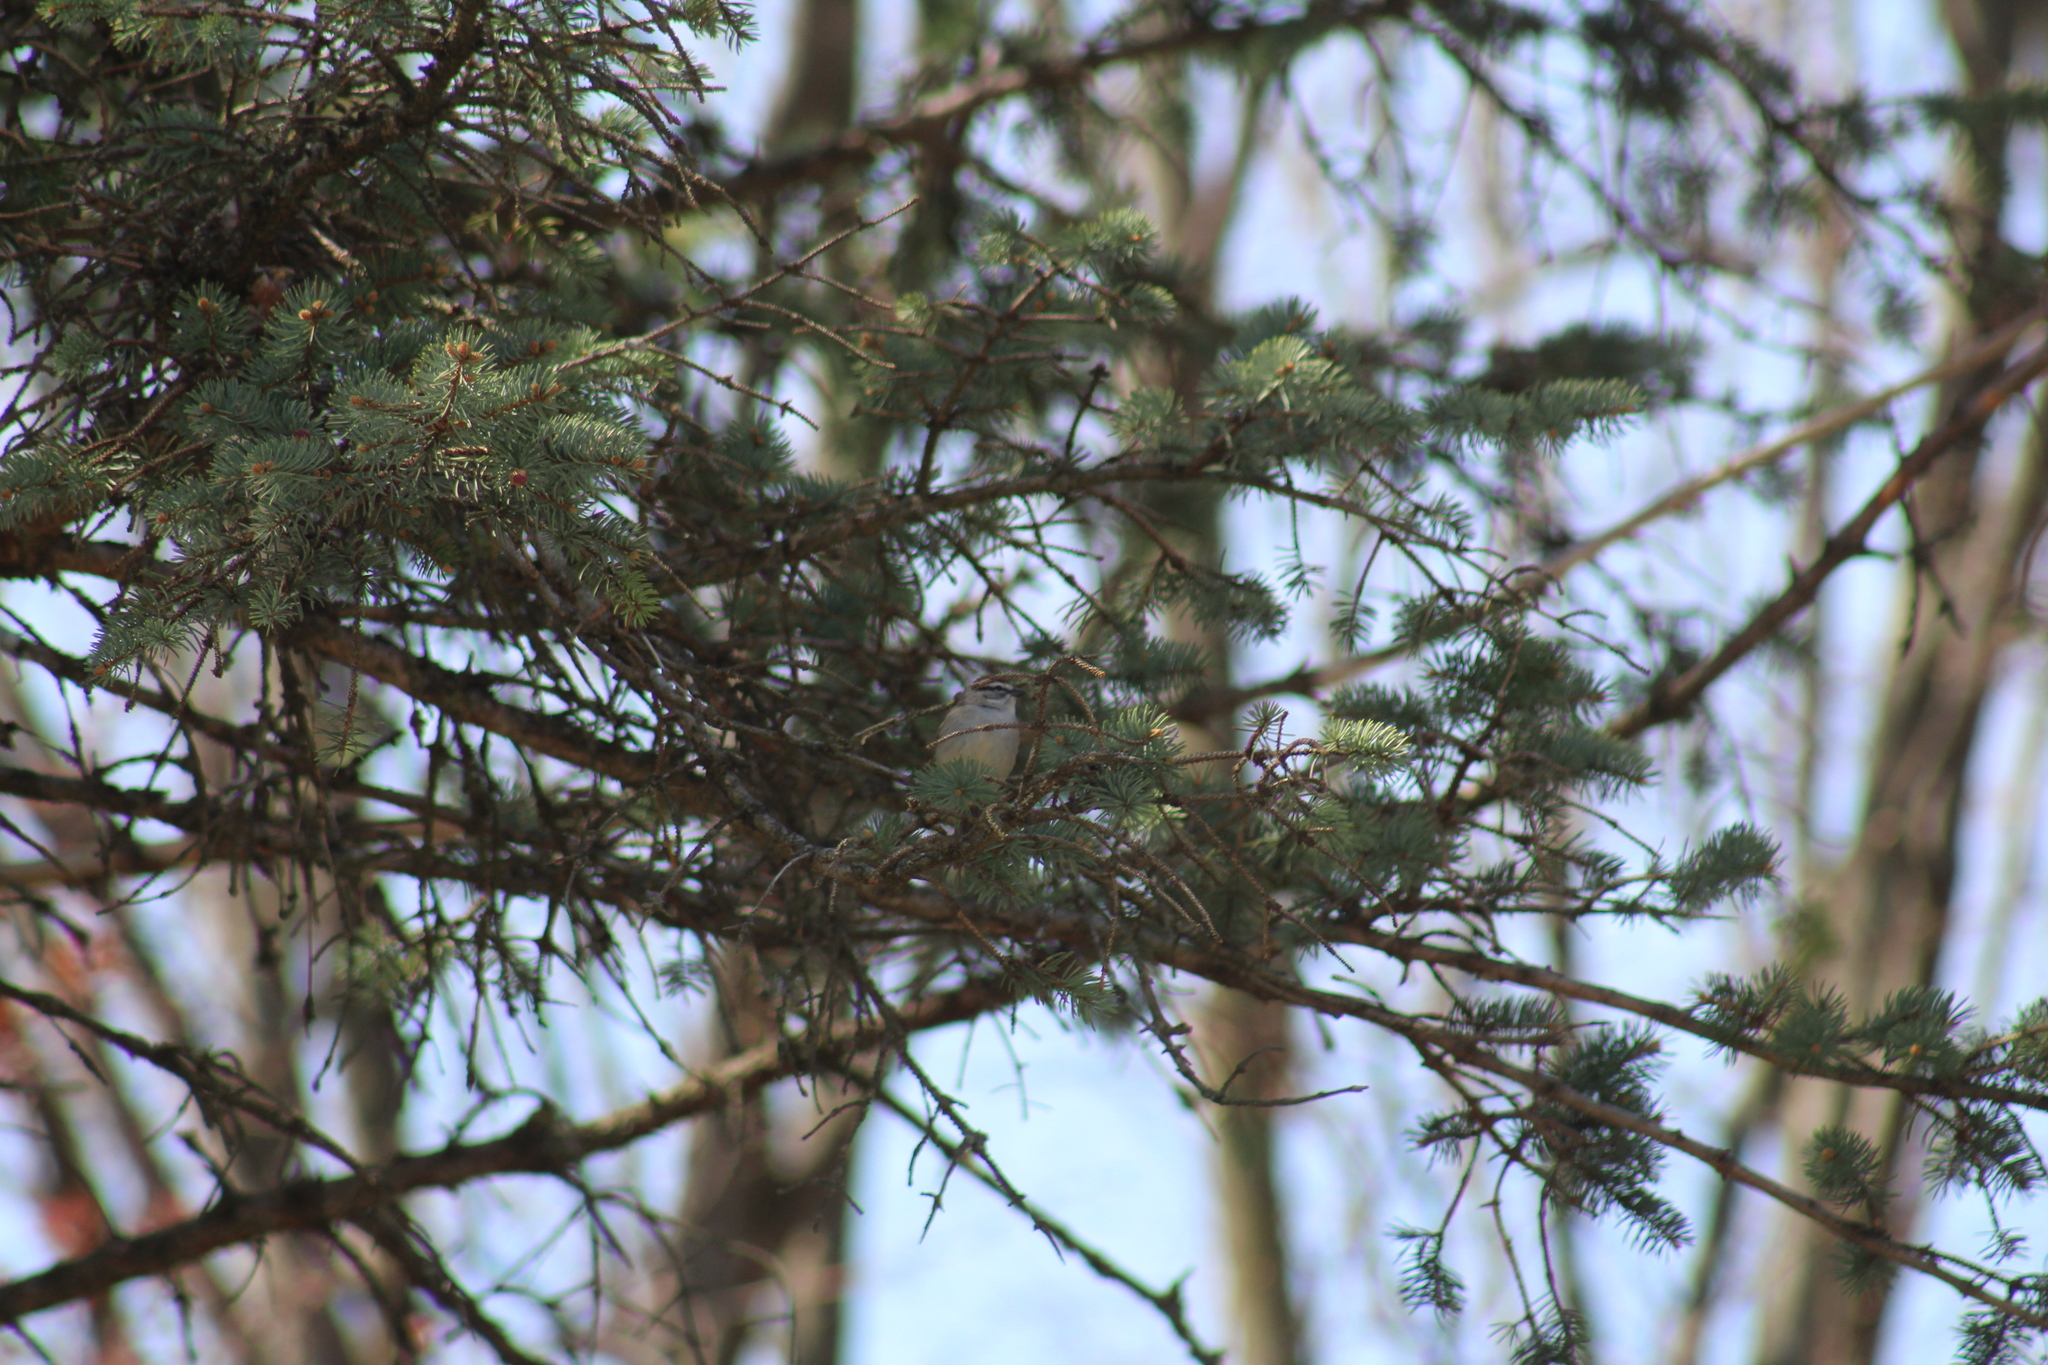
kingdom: Animalia
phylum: Chordata
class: Aves
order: Passeriformes
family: Passerellidae
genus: Spizella
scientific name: Spizella passerina
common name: Chipping sparrow
